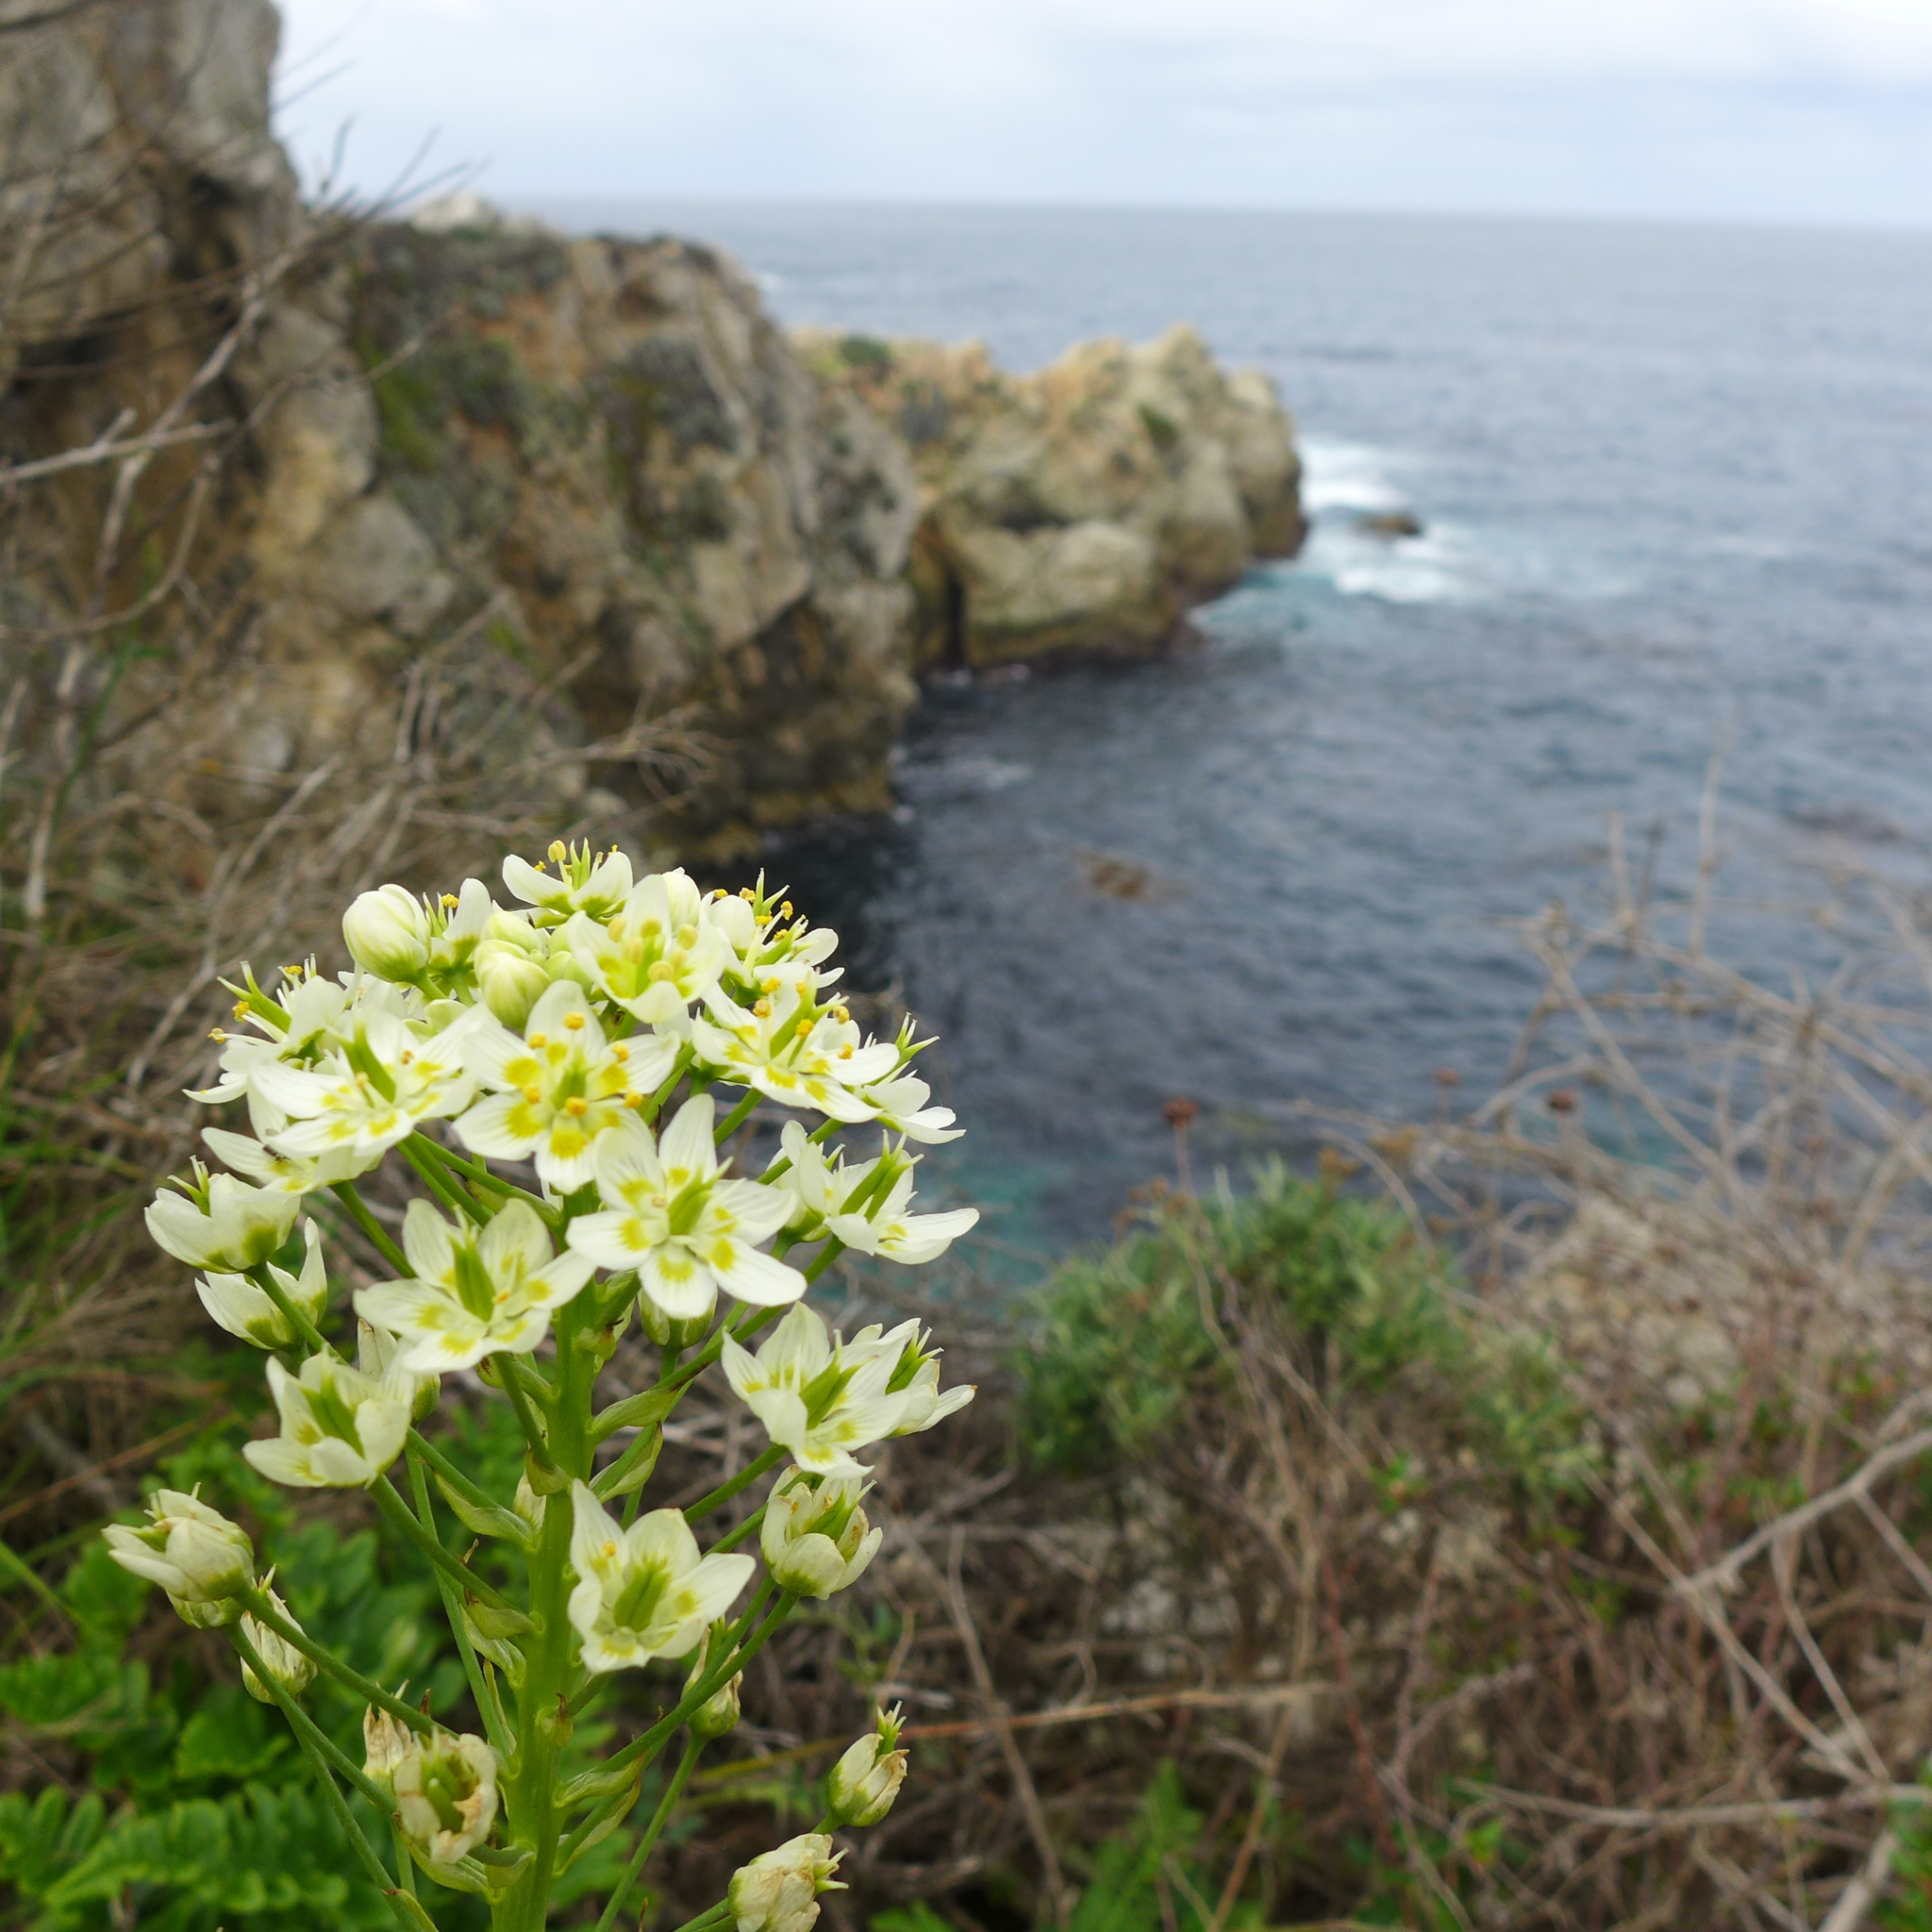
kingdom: Plantae
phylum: Tracheophyta
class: Liliopsida
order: Liliales
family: Melanthiaceae
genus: Toxicoscordion
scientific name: Toxicoscordion fremontii
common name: Fremont's death camas
